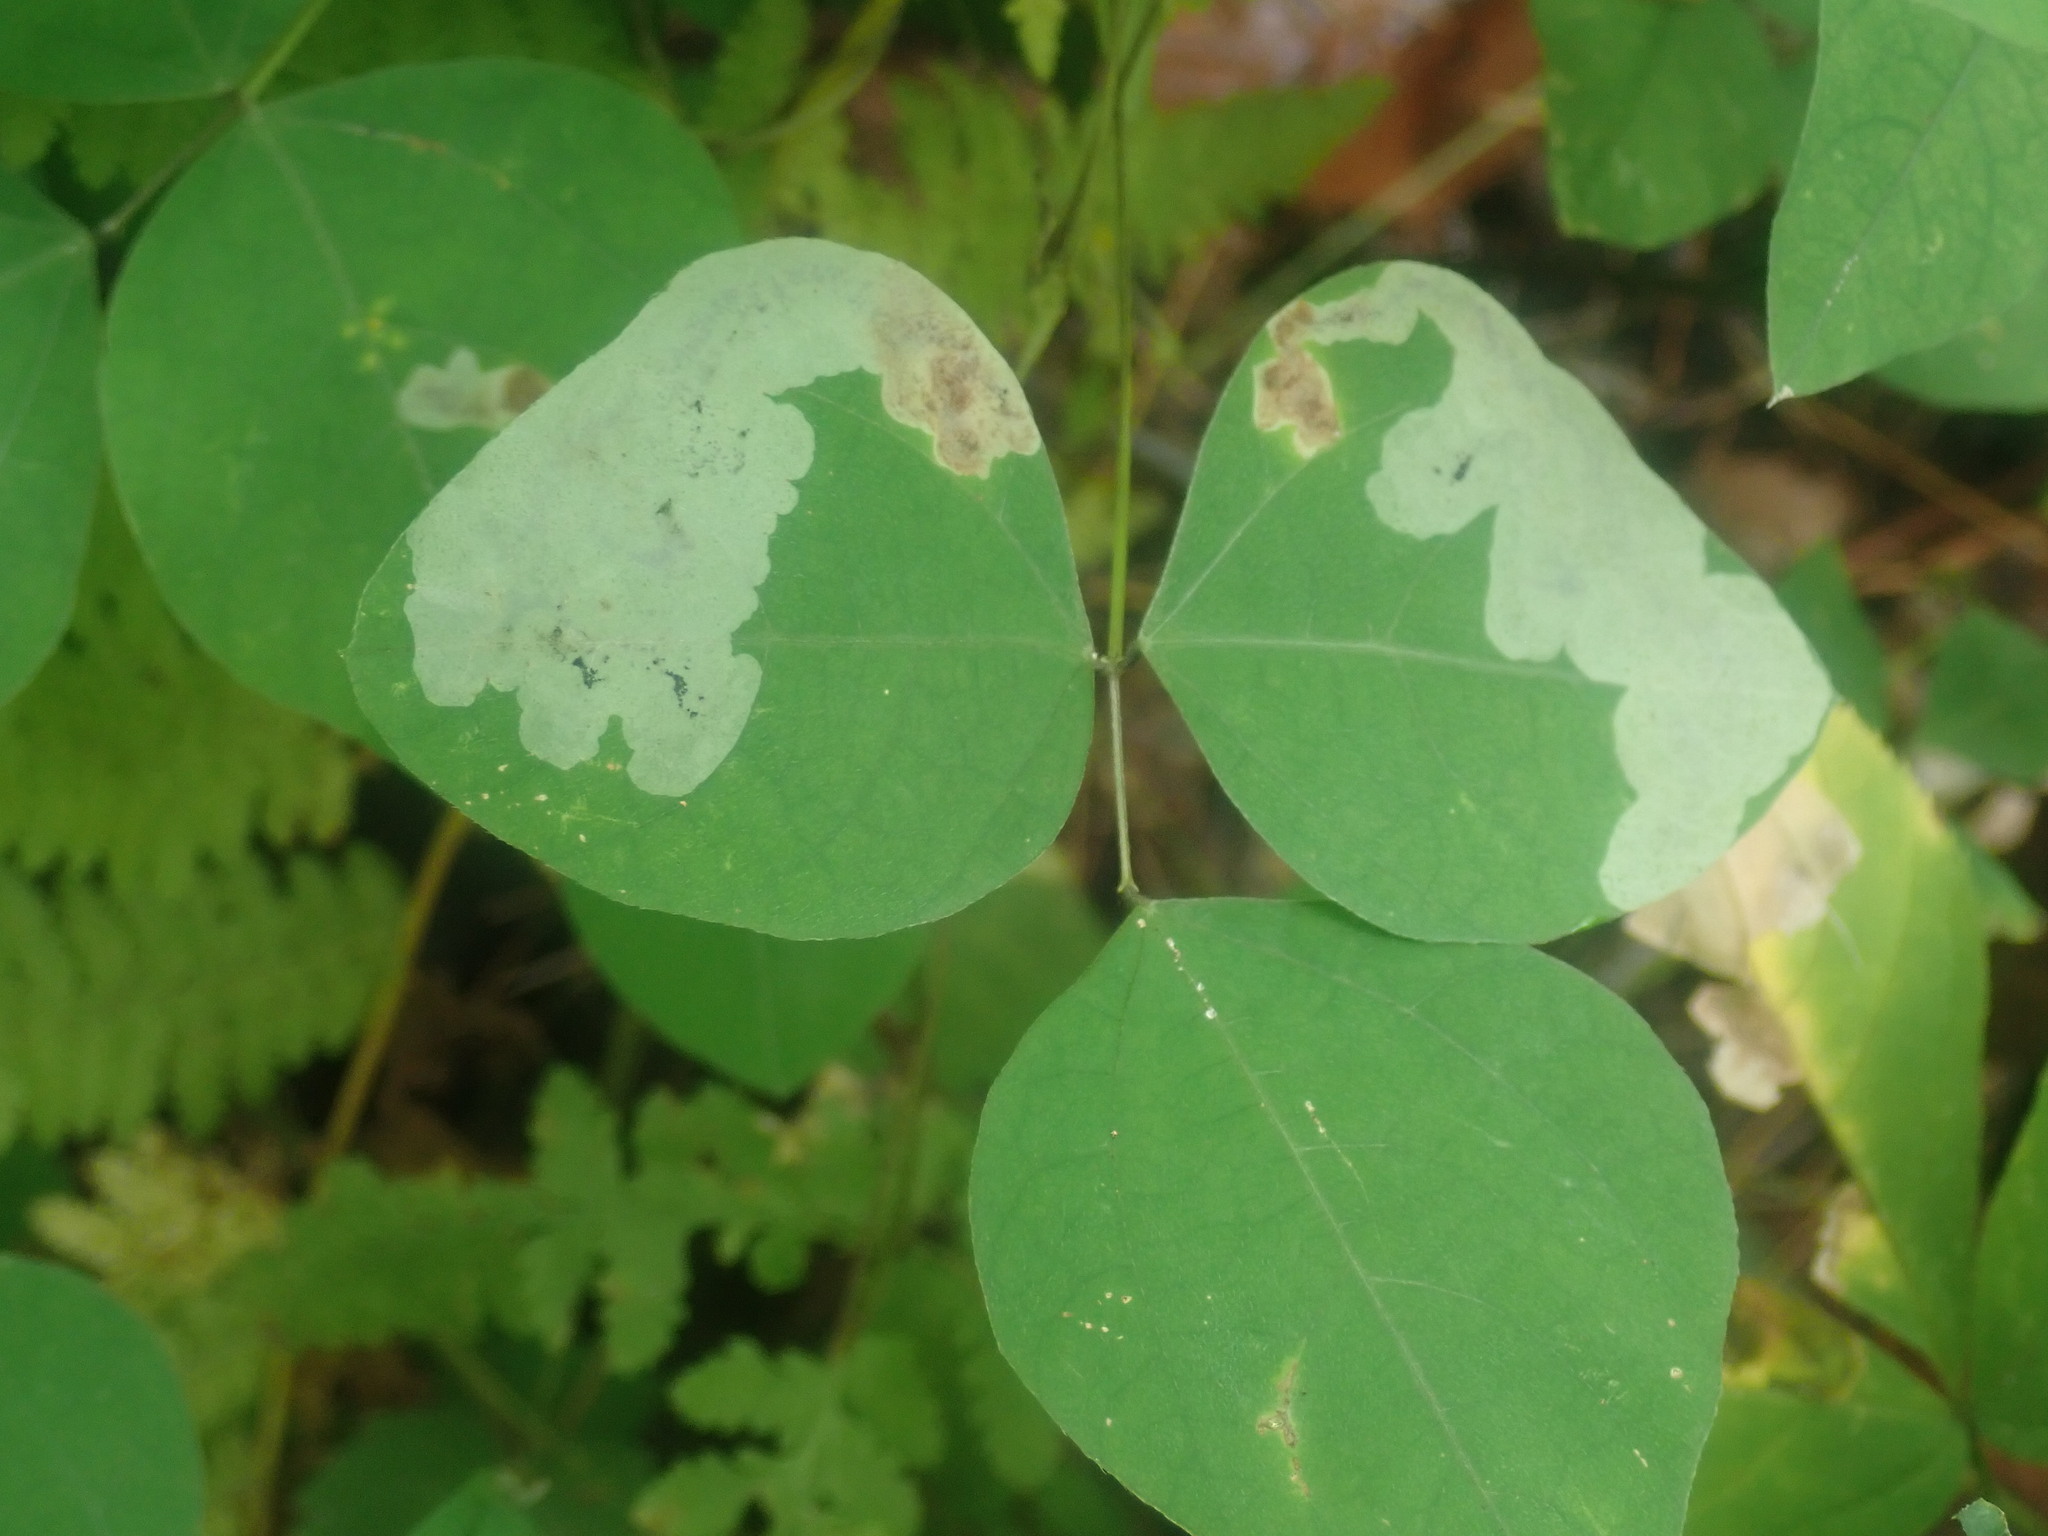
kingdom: Animalia
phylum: Arthropoda
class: Insecta
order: Lepidoptera
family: Gracillariidae
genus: Leucanthiza
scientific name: Leucanthiza amphicarpeaefoliella
